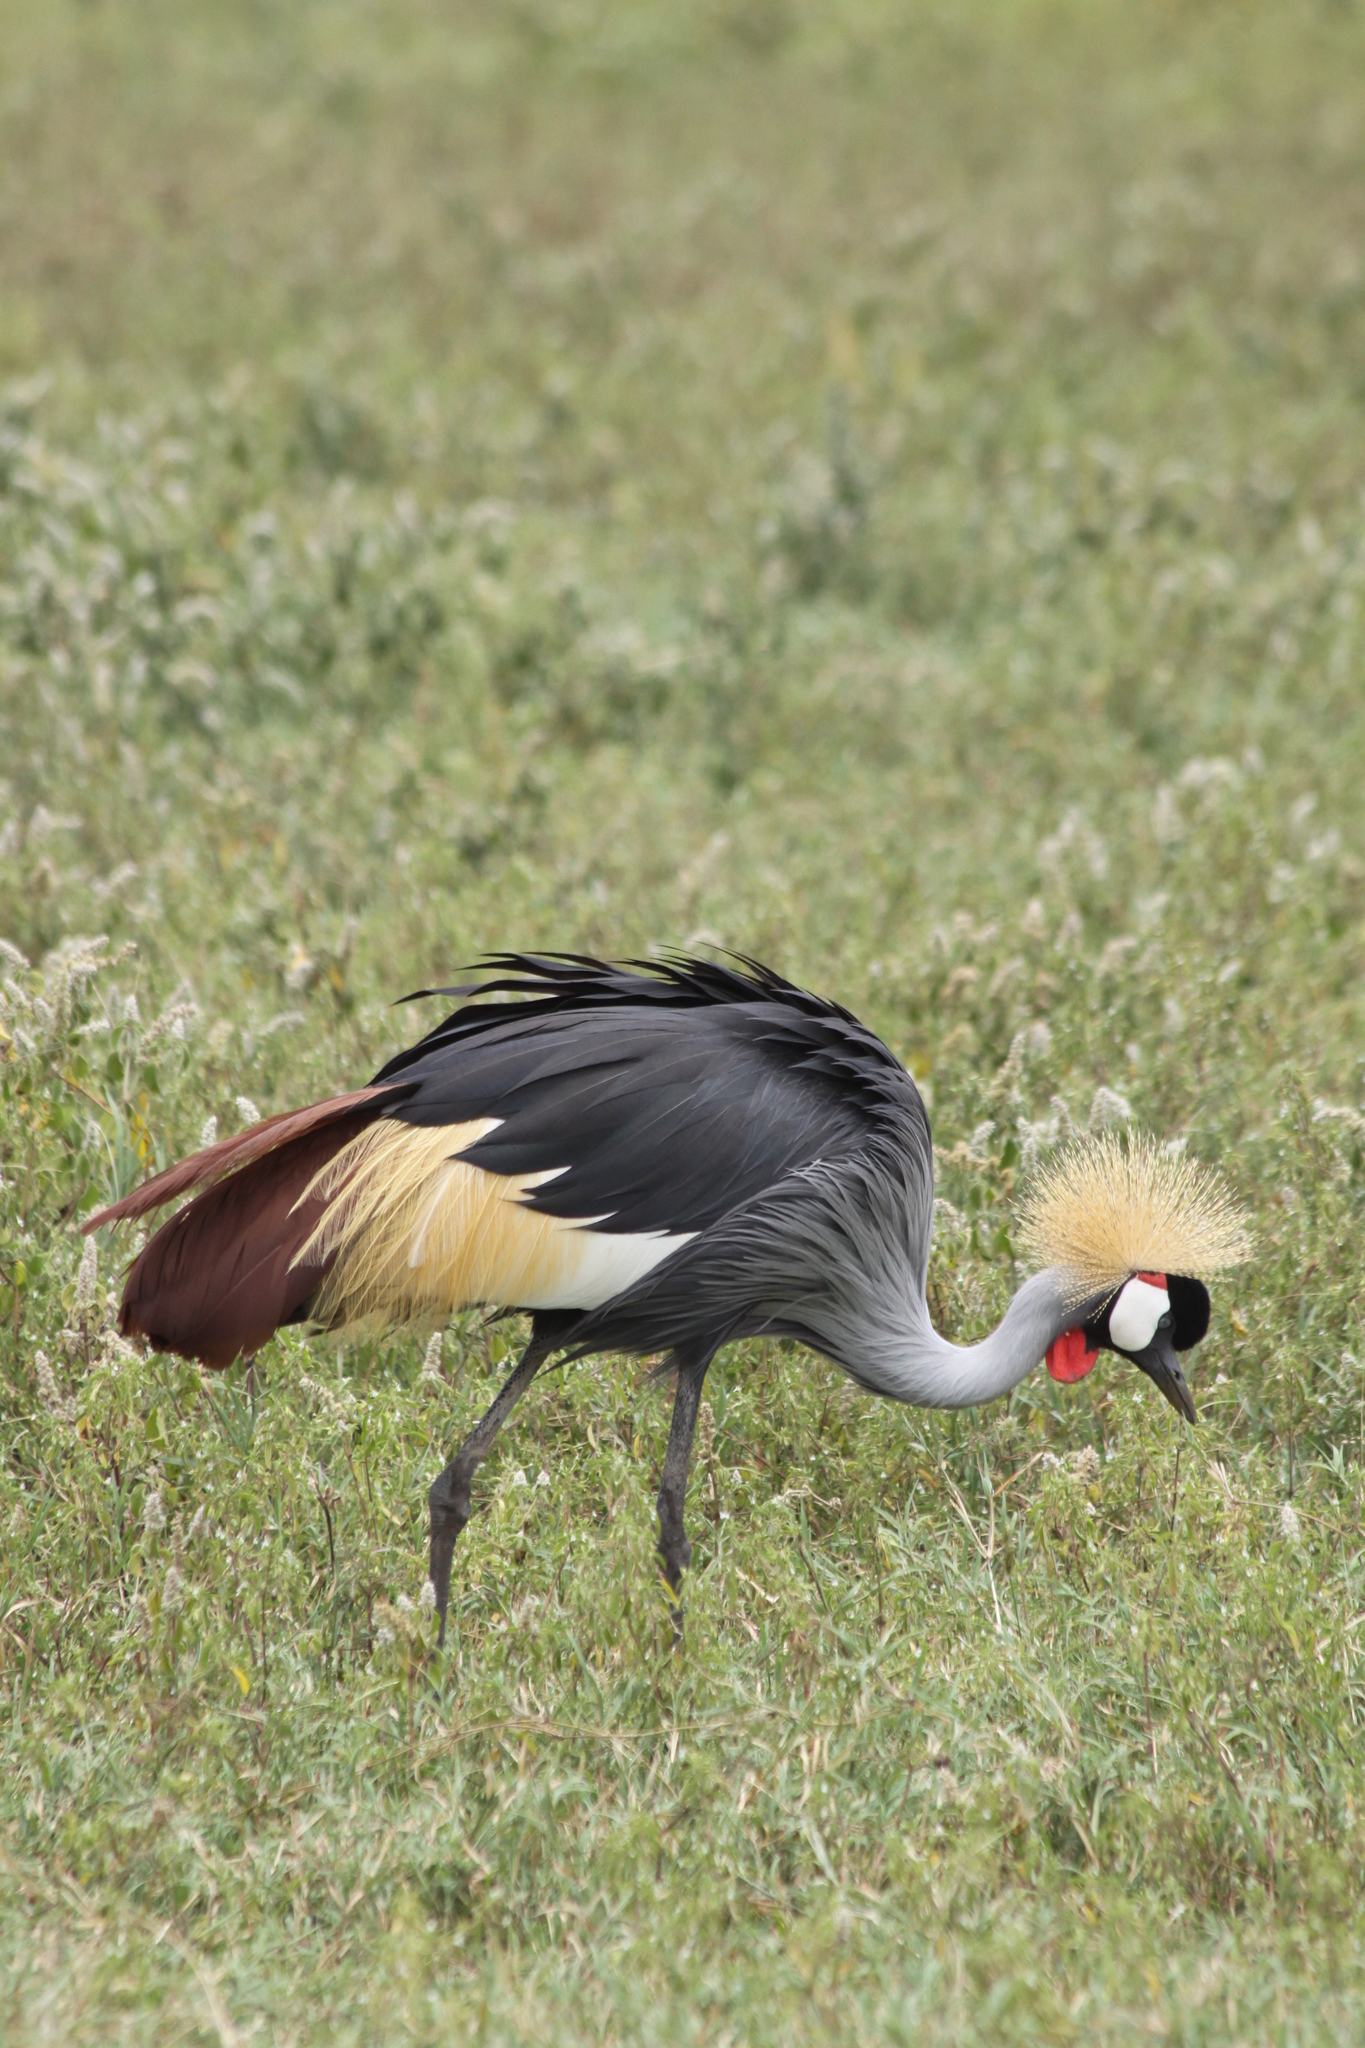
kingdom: Animalia
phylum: Chordata
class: Aves
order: Gruiformes
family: Gruidae
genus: Balearica
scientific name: Balearica regulorum
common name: Grey crowned crane
